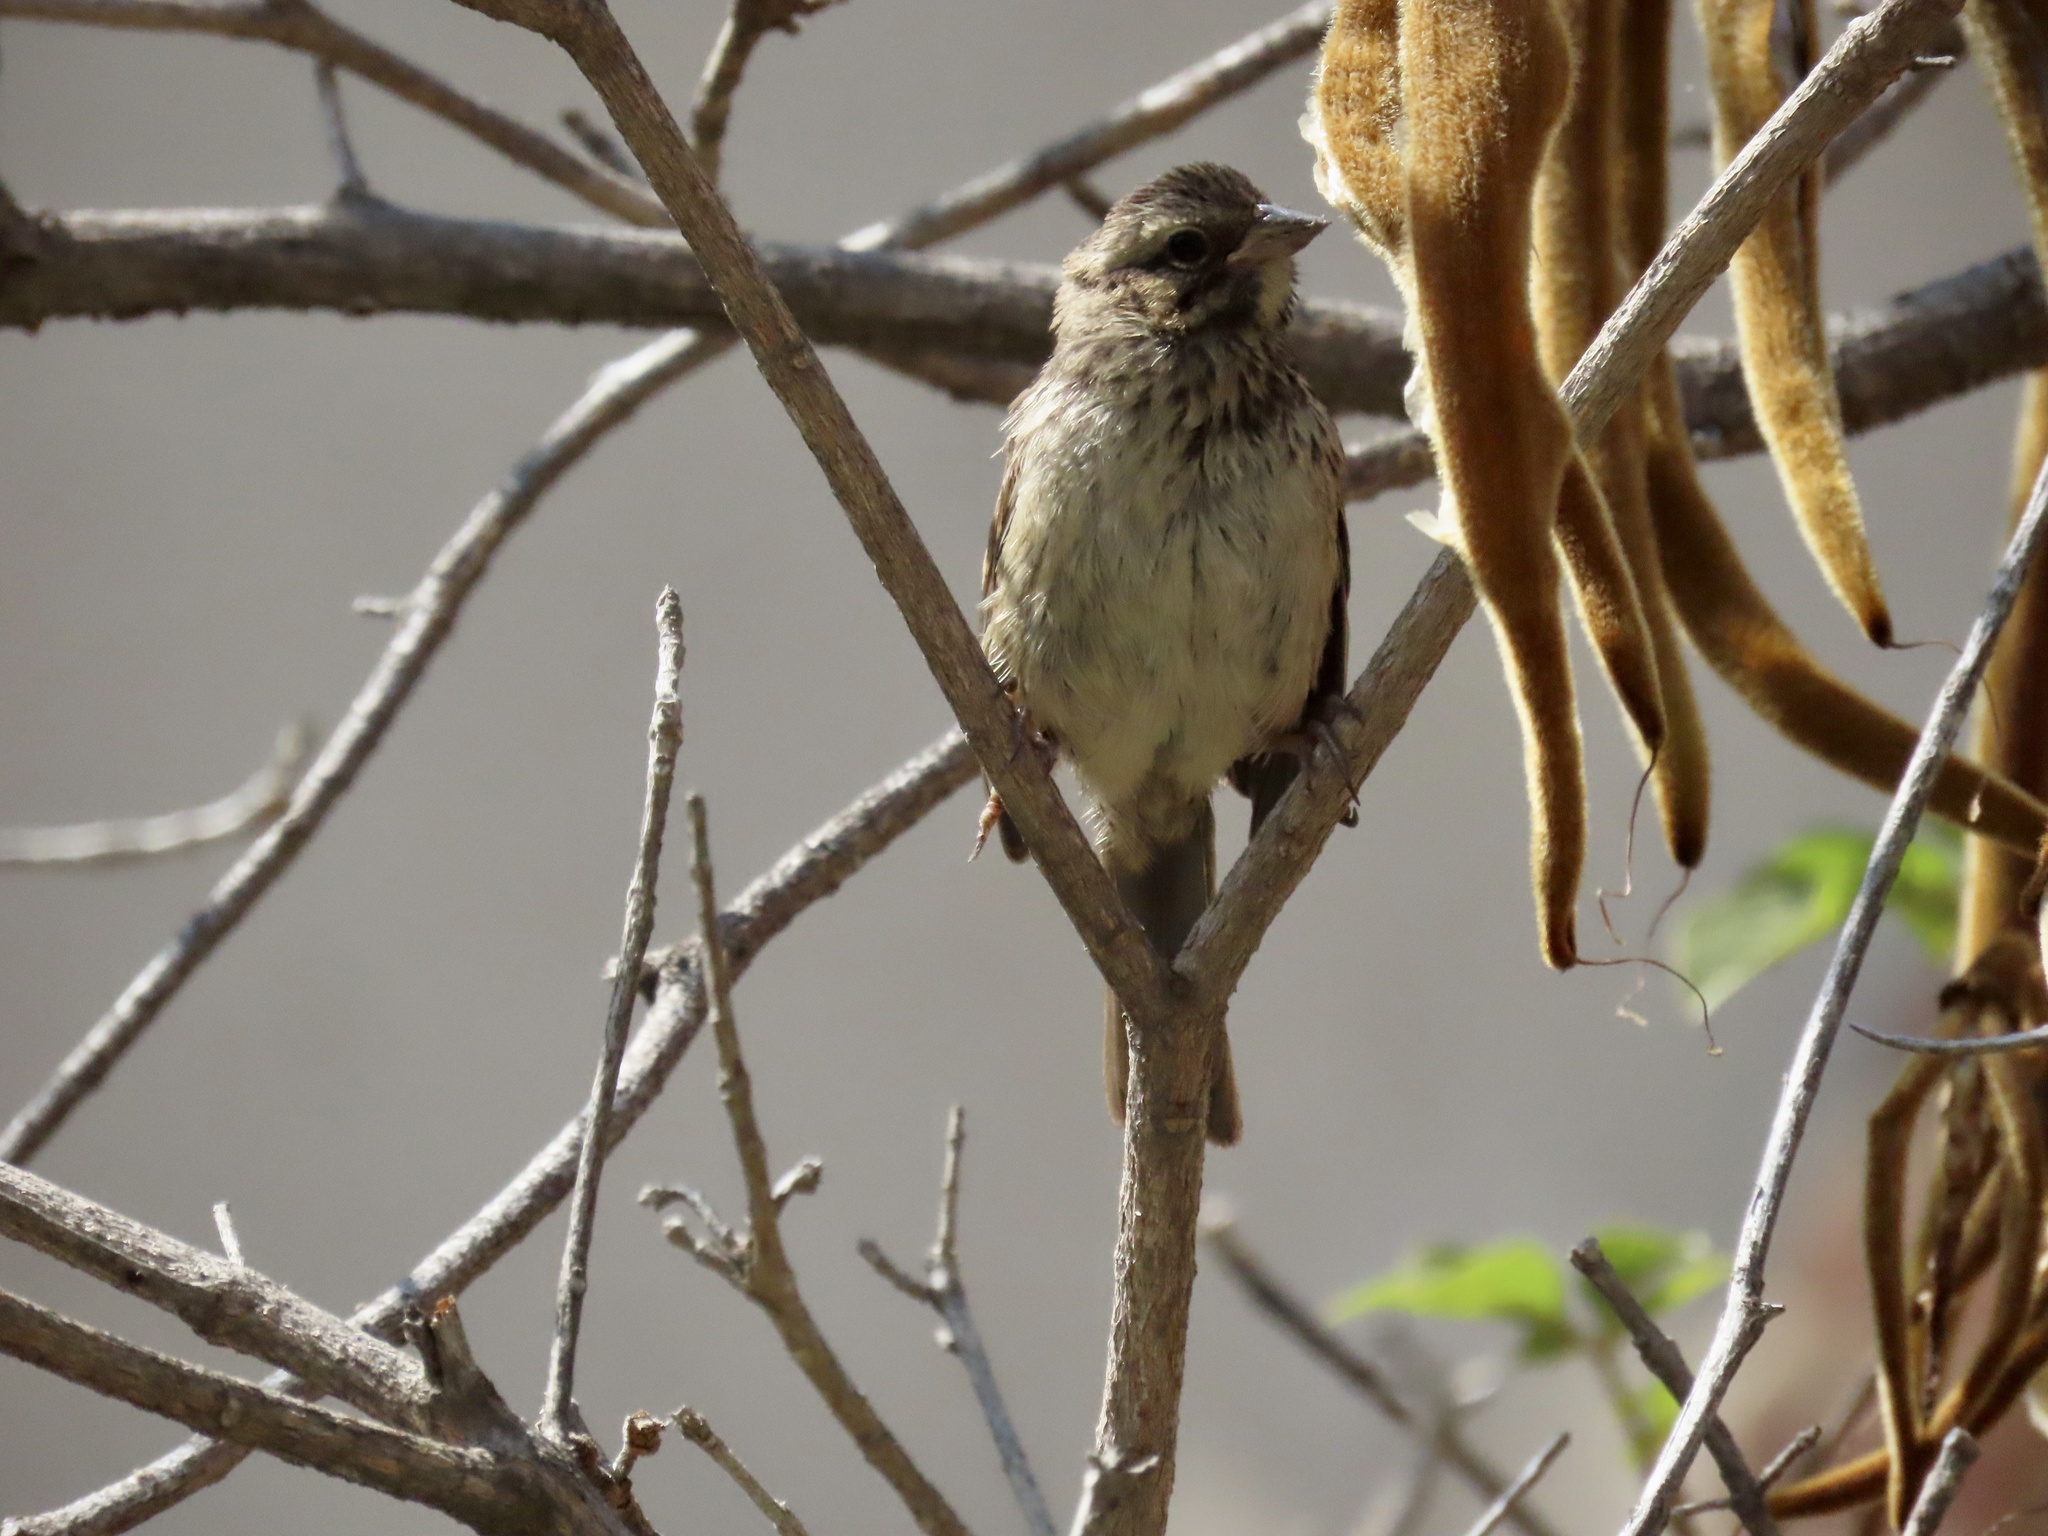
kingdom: Animalia
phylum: Chordata
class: Aves
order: Passeriformes
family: Passerellidae
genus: Melospiza
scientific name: Melospiza melodia
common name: Song sparrow
